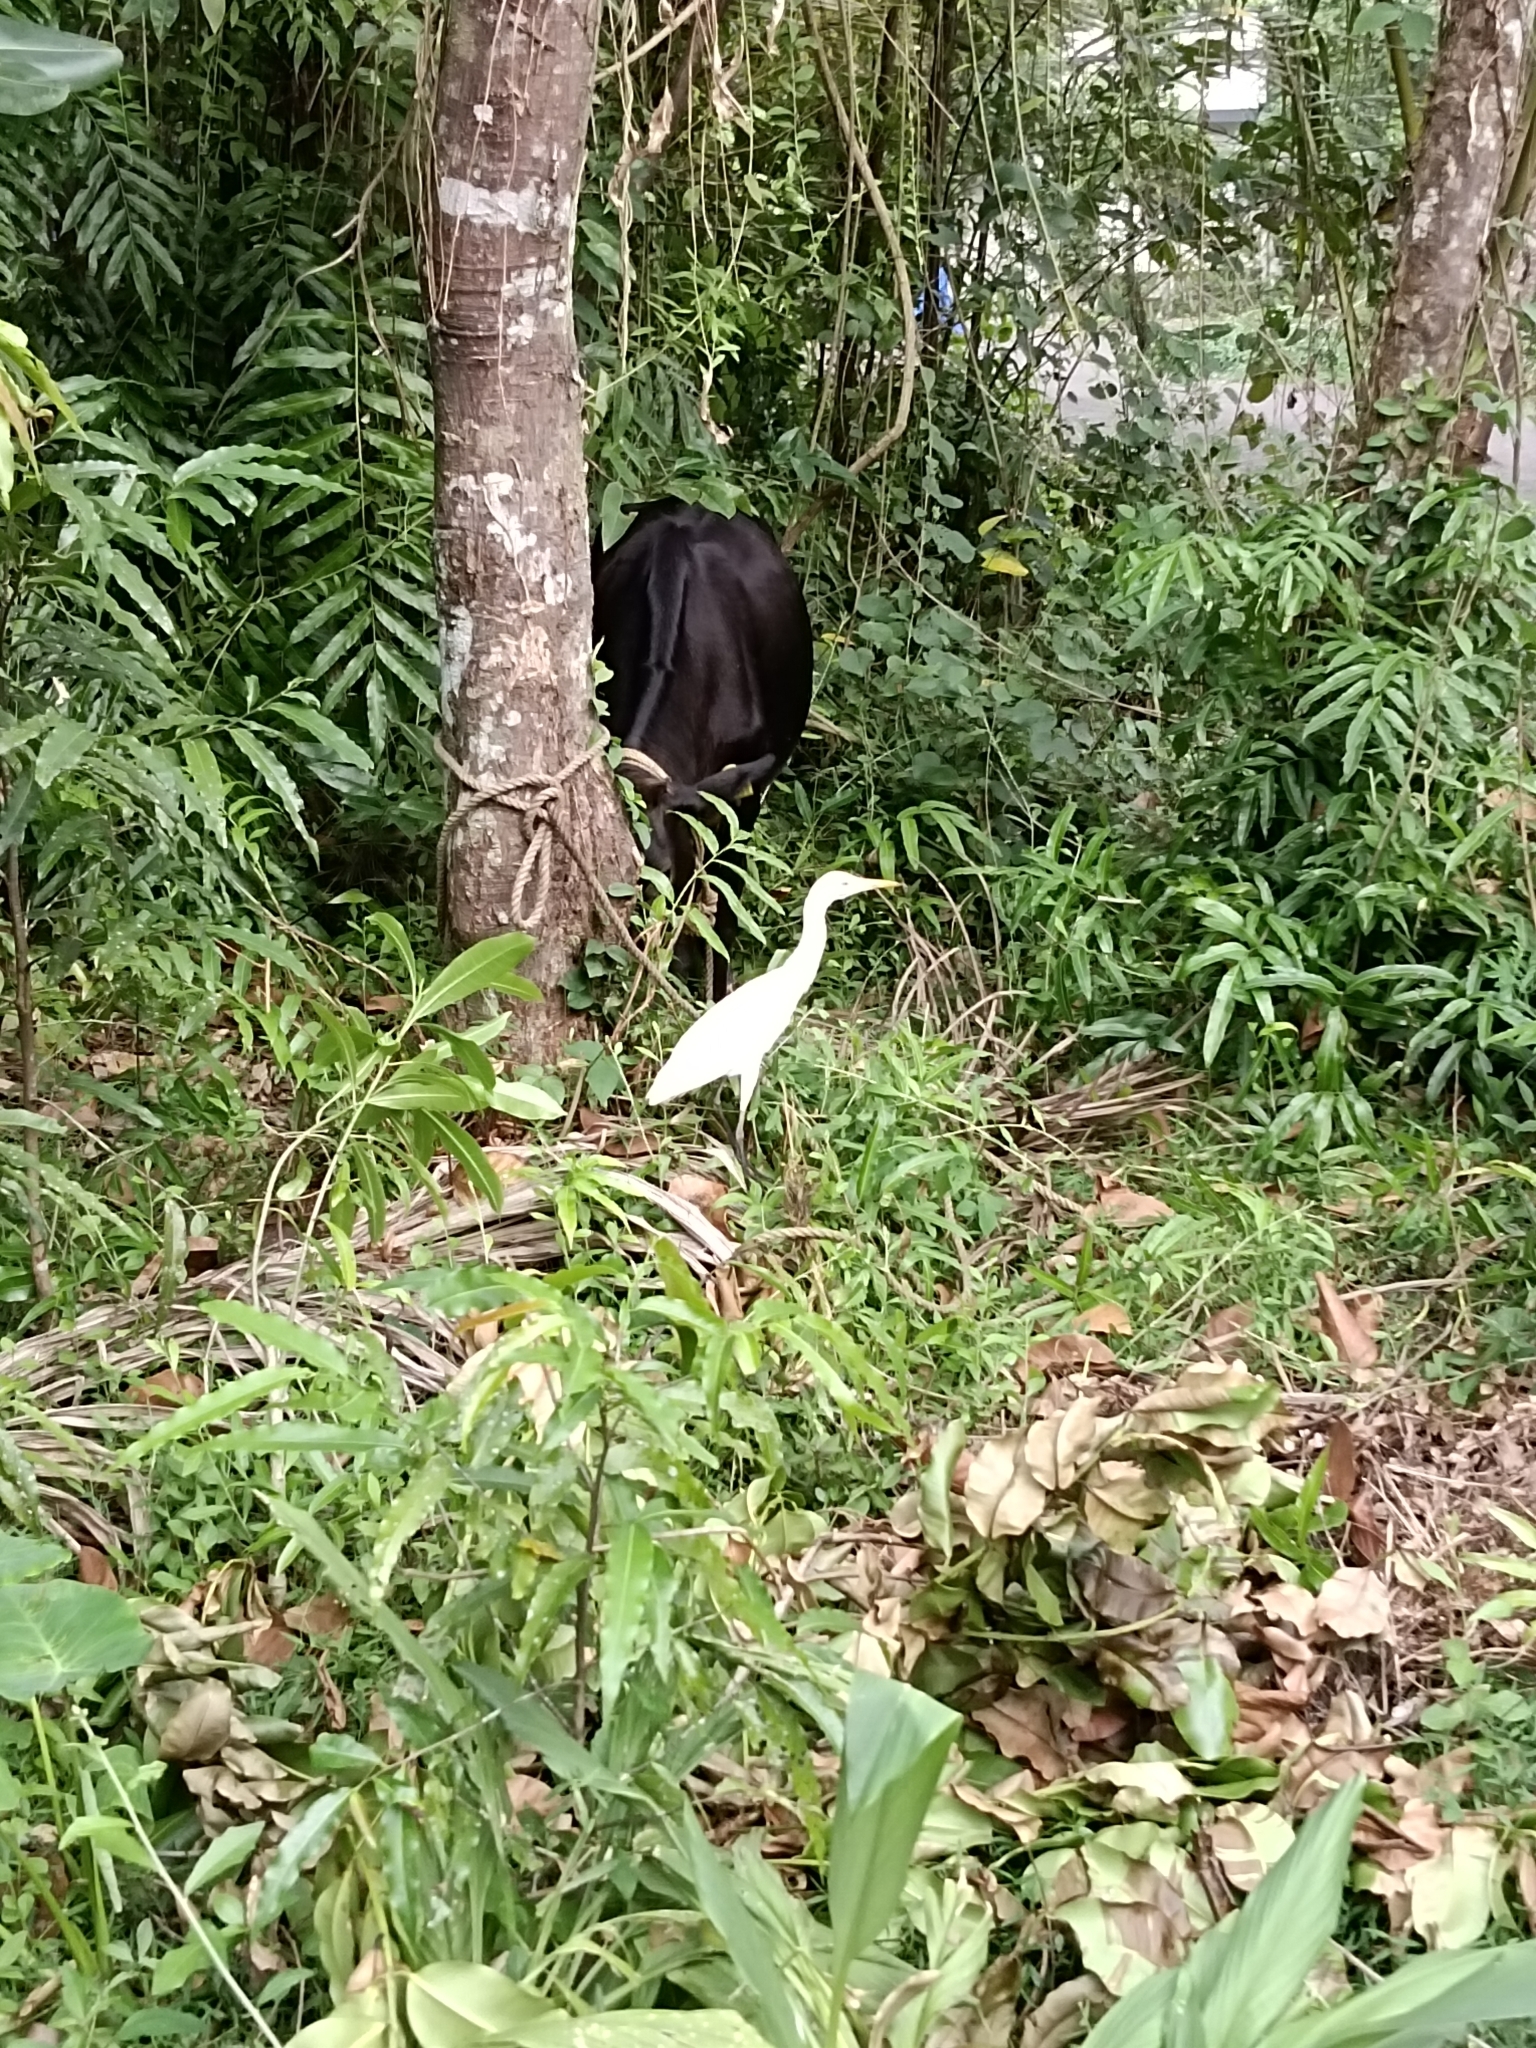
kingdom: Animalia
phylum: Chordata
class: Aves
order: Pelecaniformes
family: Ardeidae
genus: Bubulcus
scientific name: Bubulcus coromandus
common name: Eastern cattle egret
